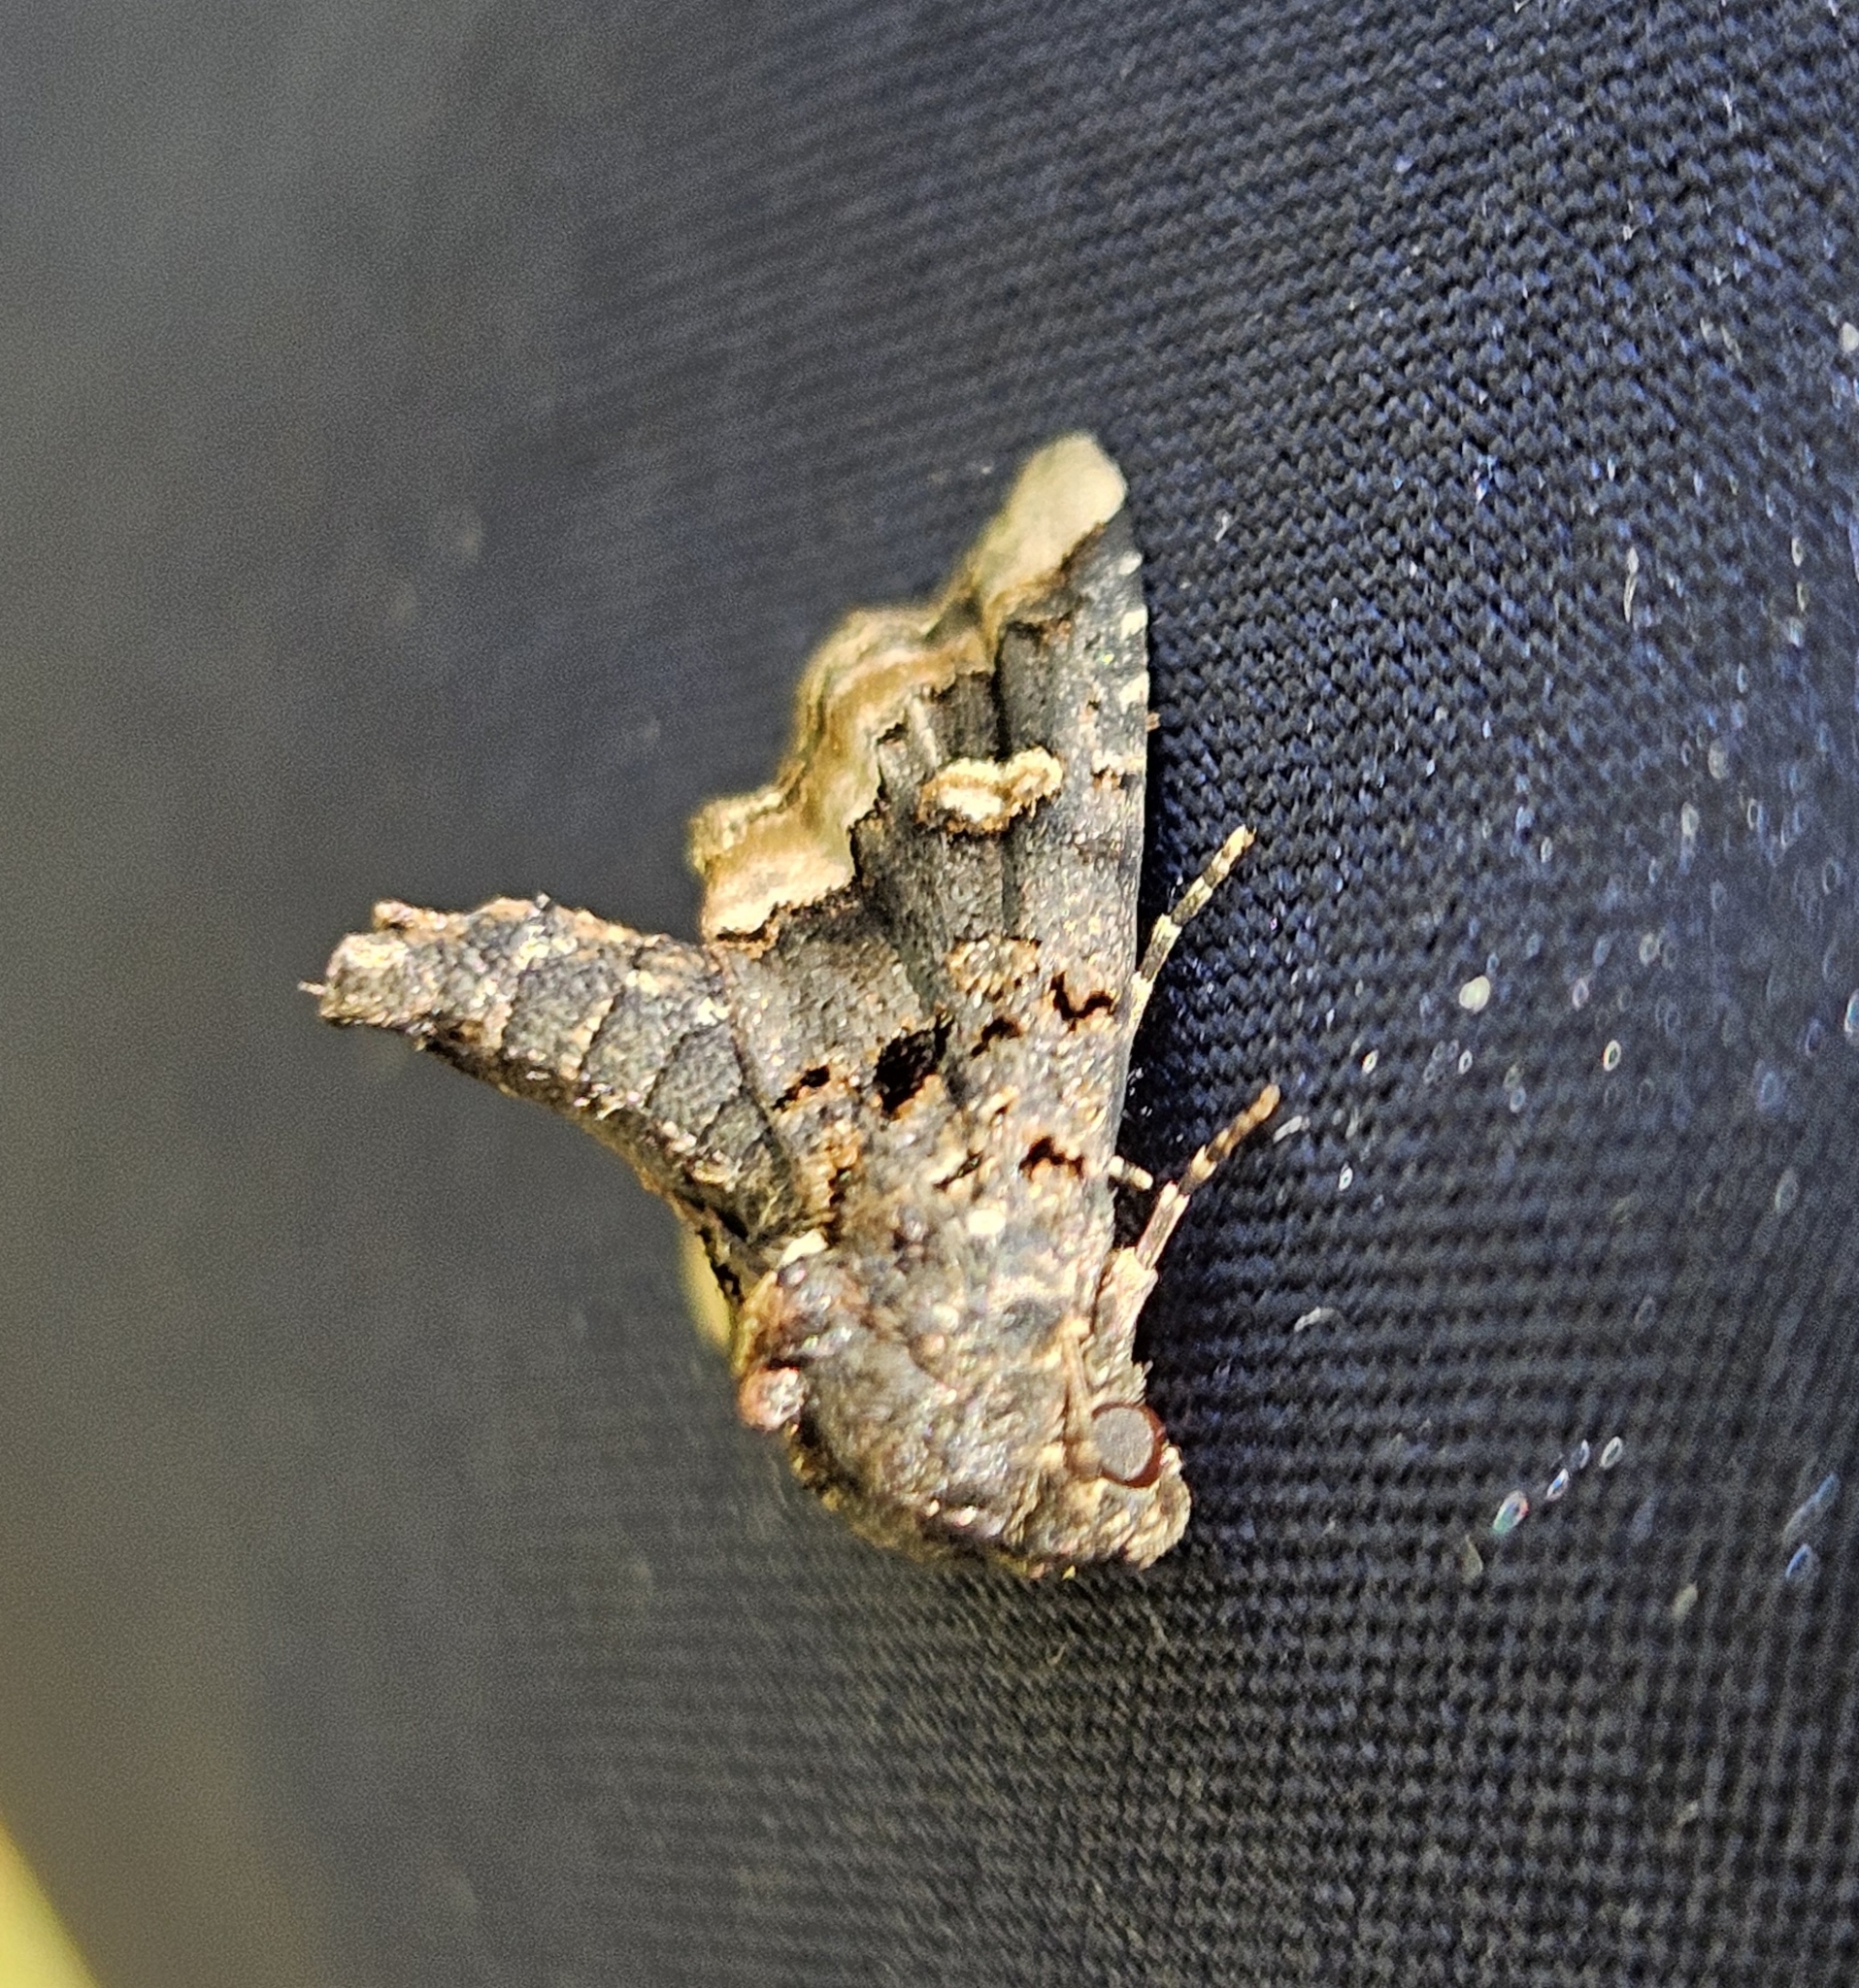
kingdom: Animalia
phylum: Arthropoda
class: Insecta
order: Lepidoptera
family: Noctuidae
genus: Homophoberia
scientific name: Homophoberia apicosa
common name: Black wedge-spot
